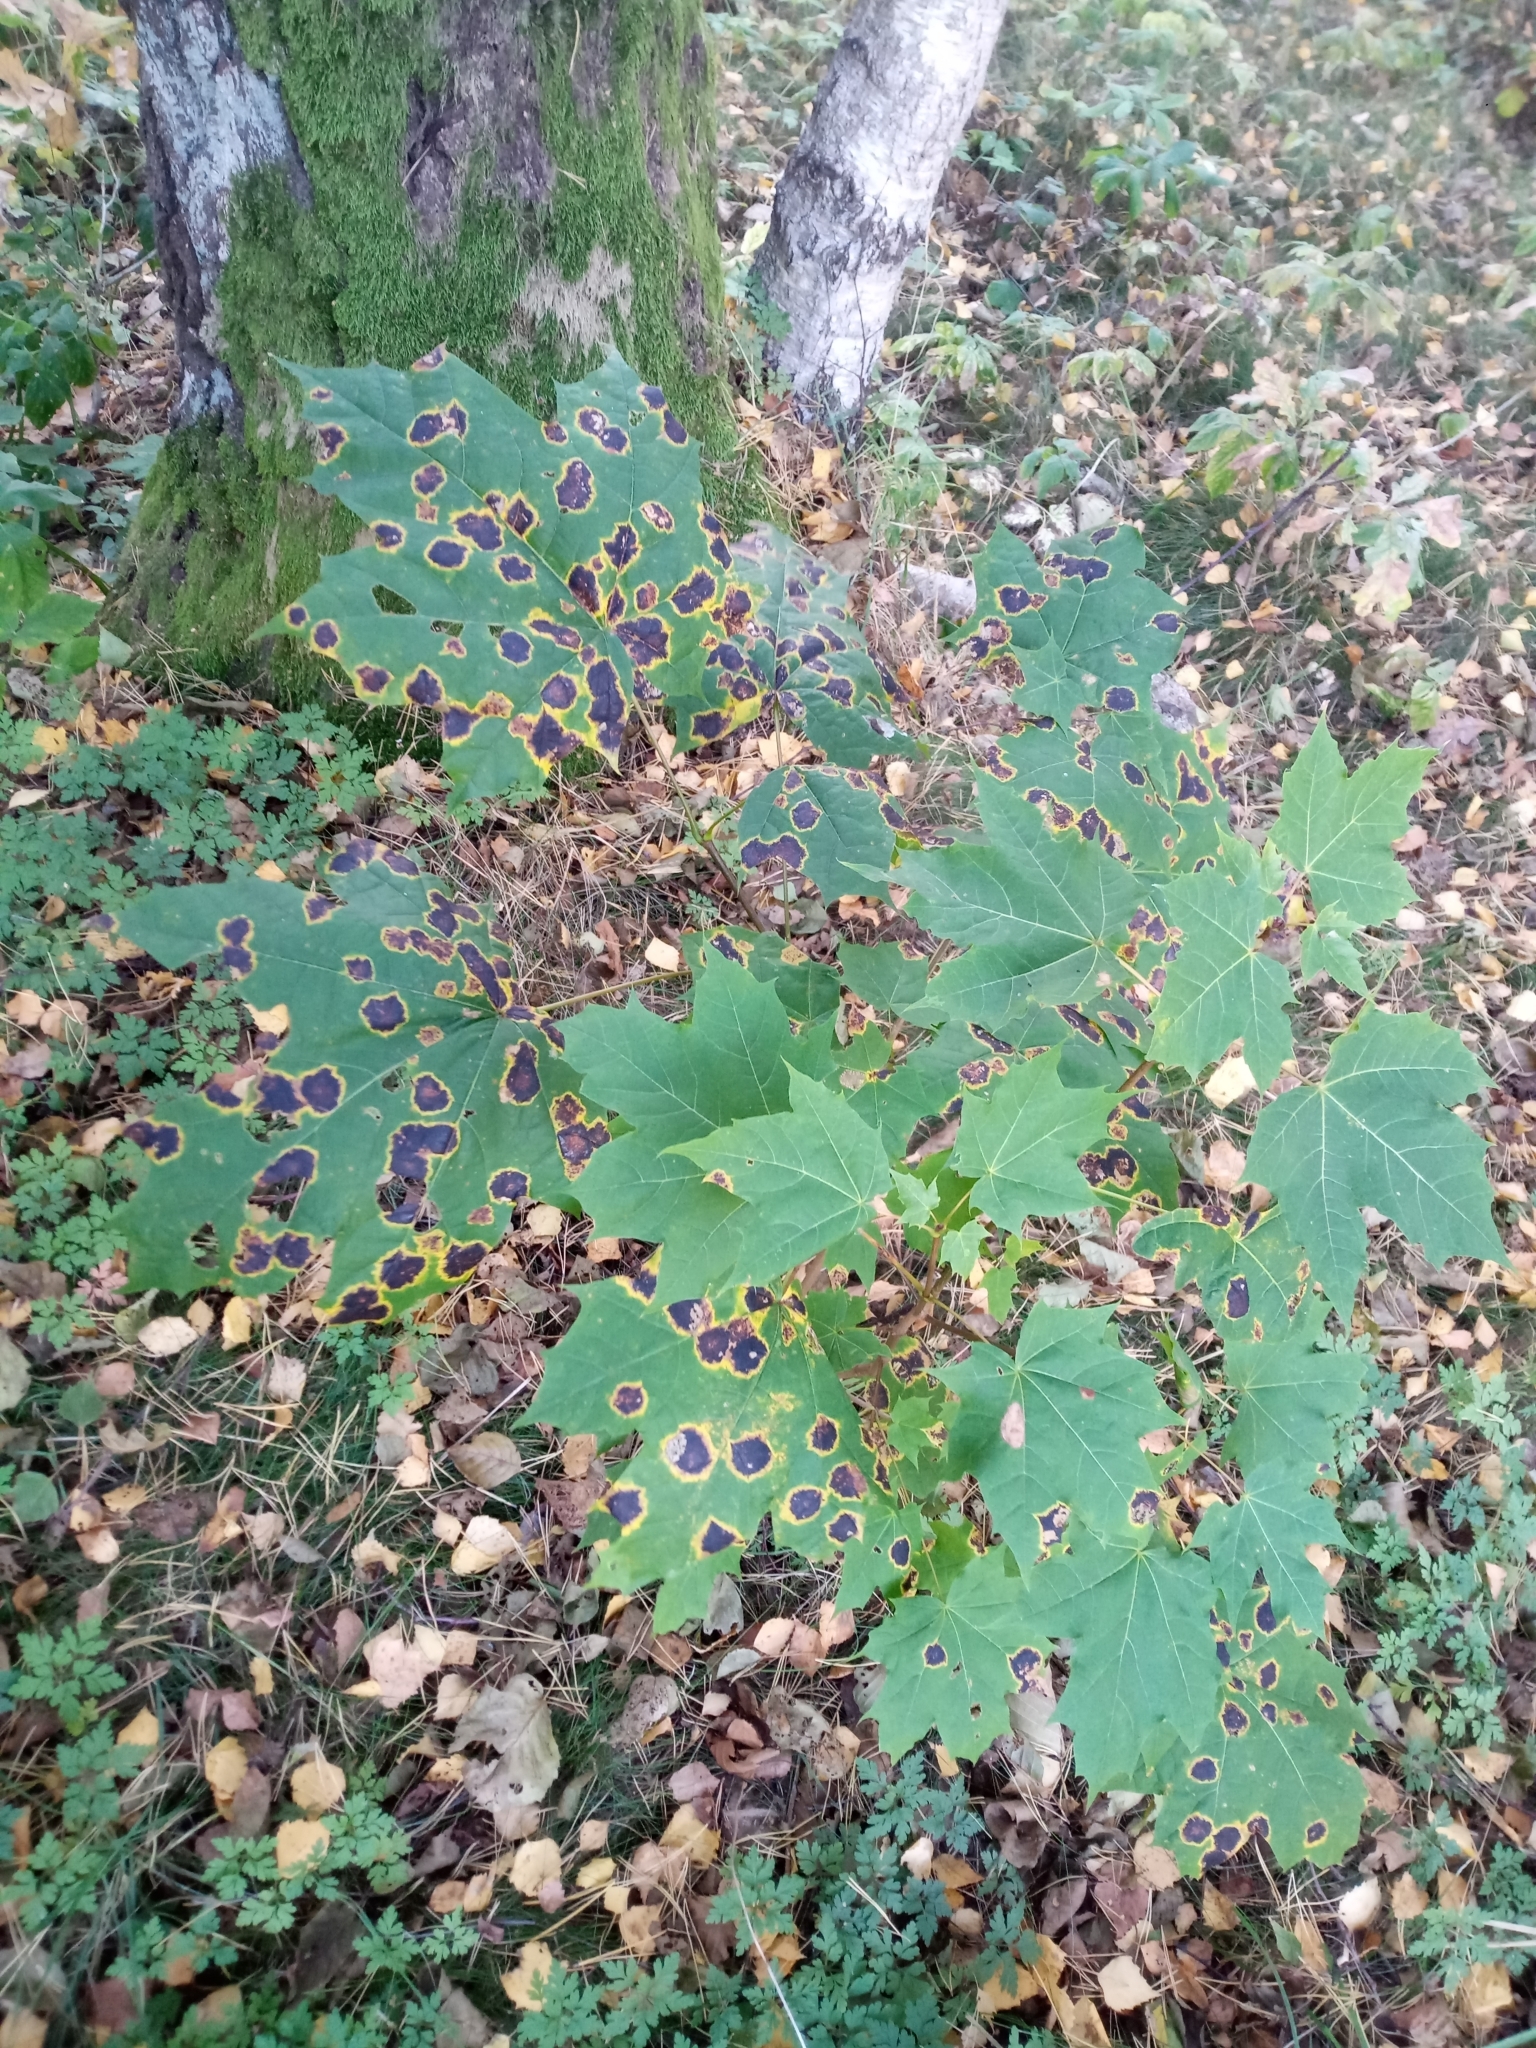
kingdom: Plantae
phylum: Tracheophyta
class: Magnoliopsida
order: Sapindales
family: Sapindaceae
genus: Acer
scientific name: Acer platanoides
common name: Norway maple
